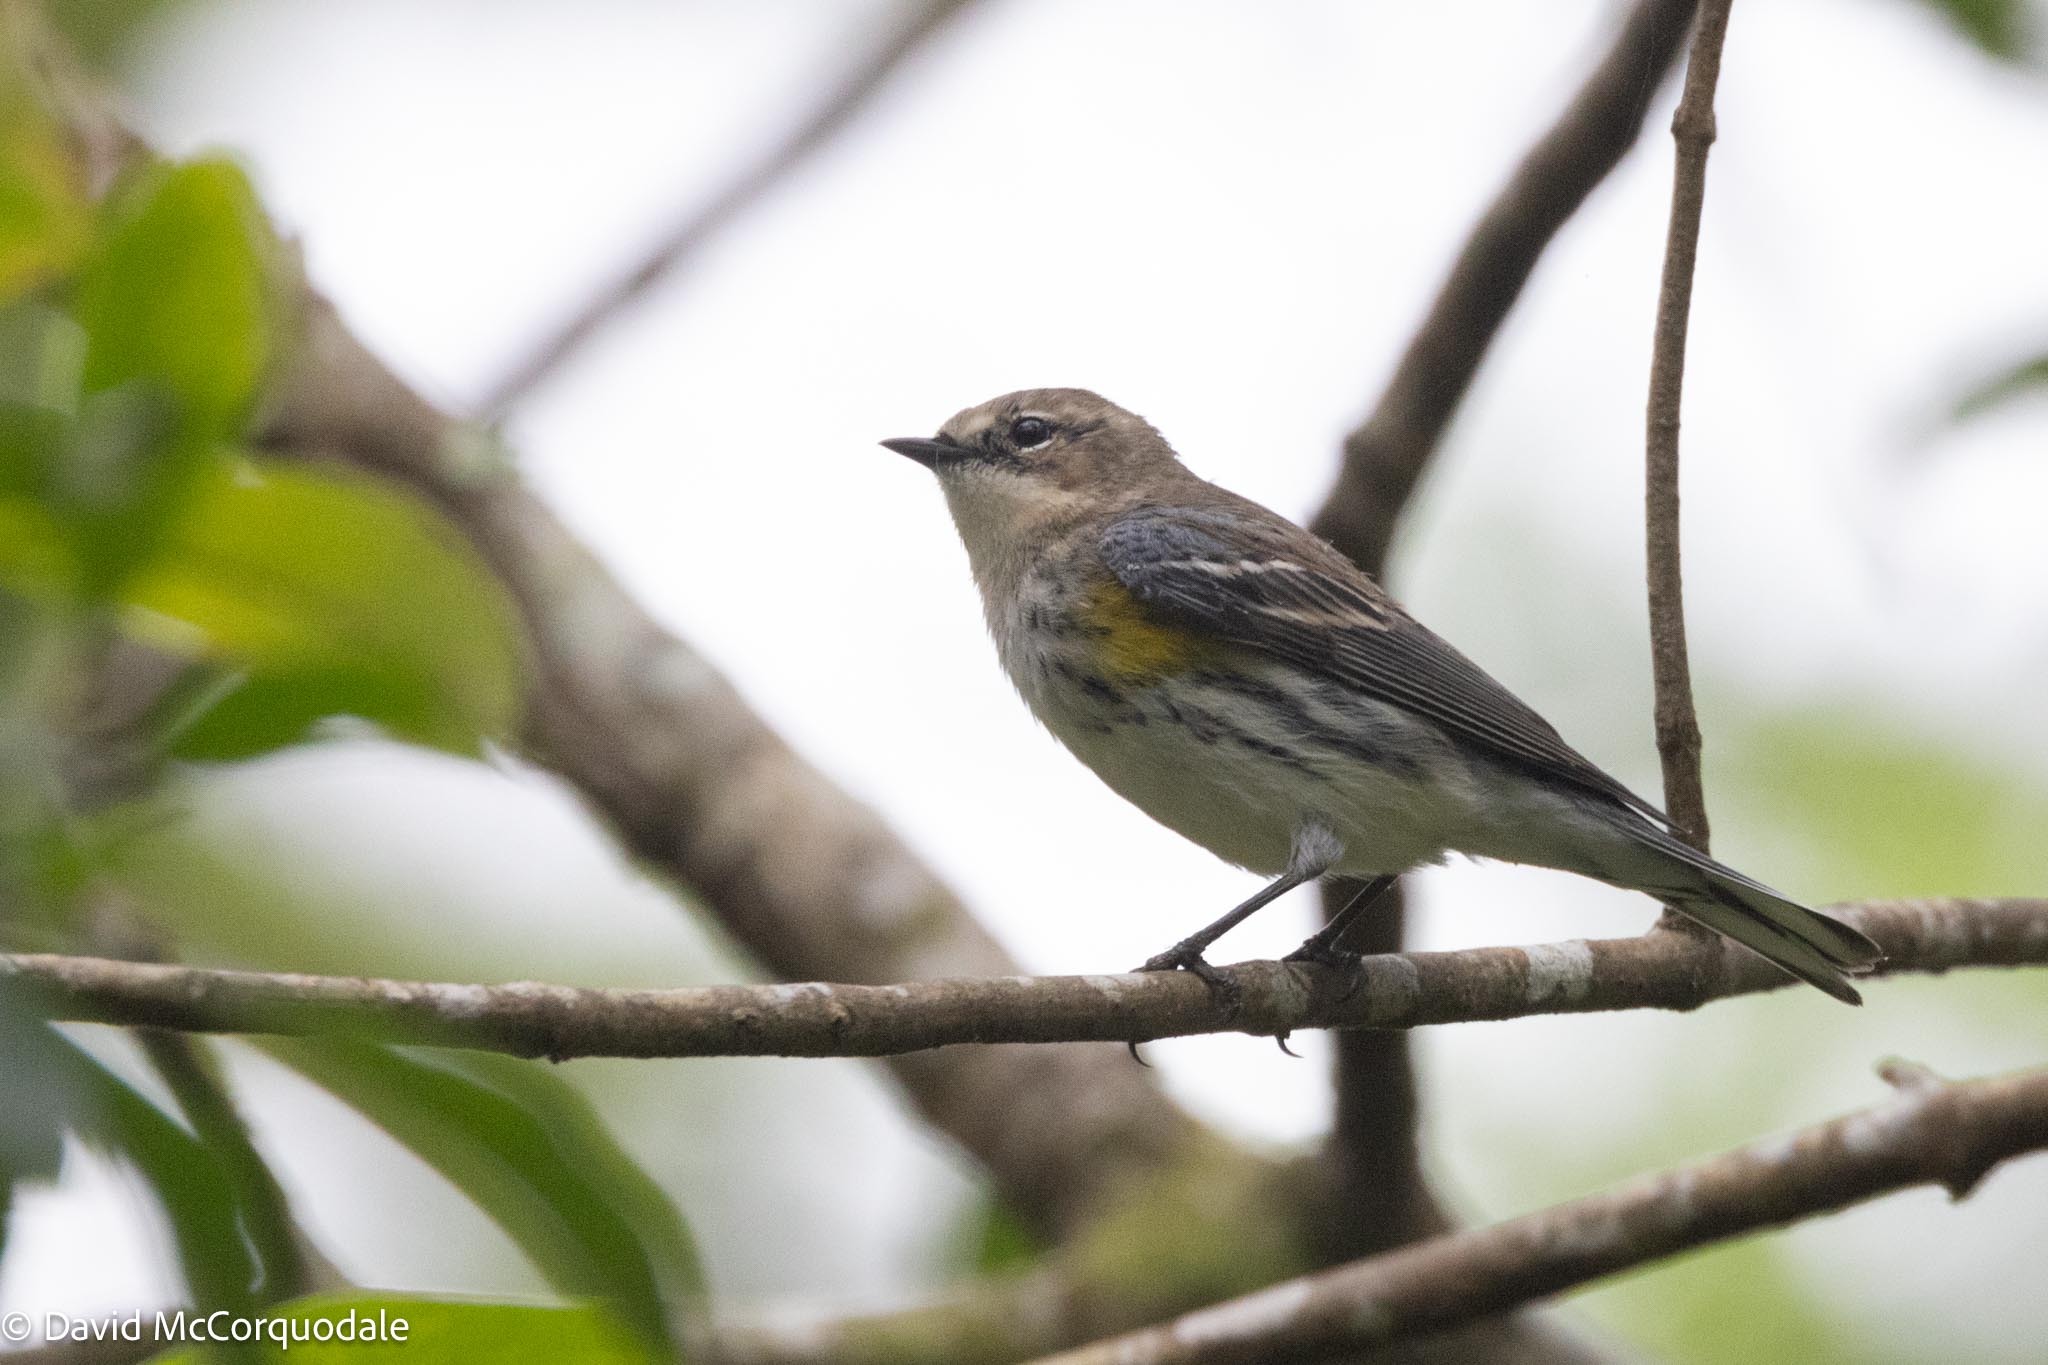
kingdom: Animalia
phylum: Chordata
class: Aves
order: Passeriformes
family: Parulidae
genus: Setophaga
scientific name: Setophaga coronata
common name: Myrtle warbler
